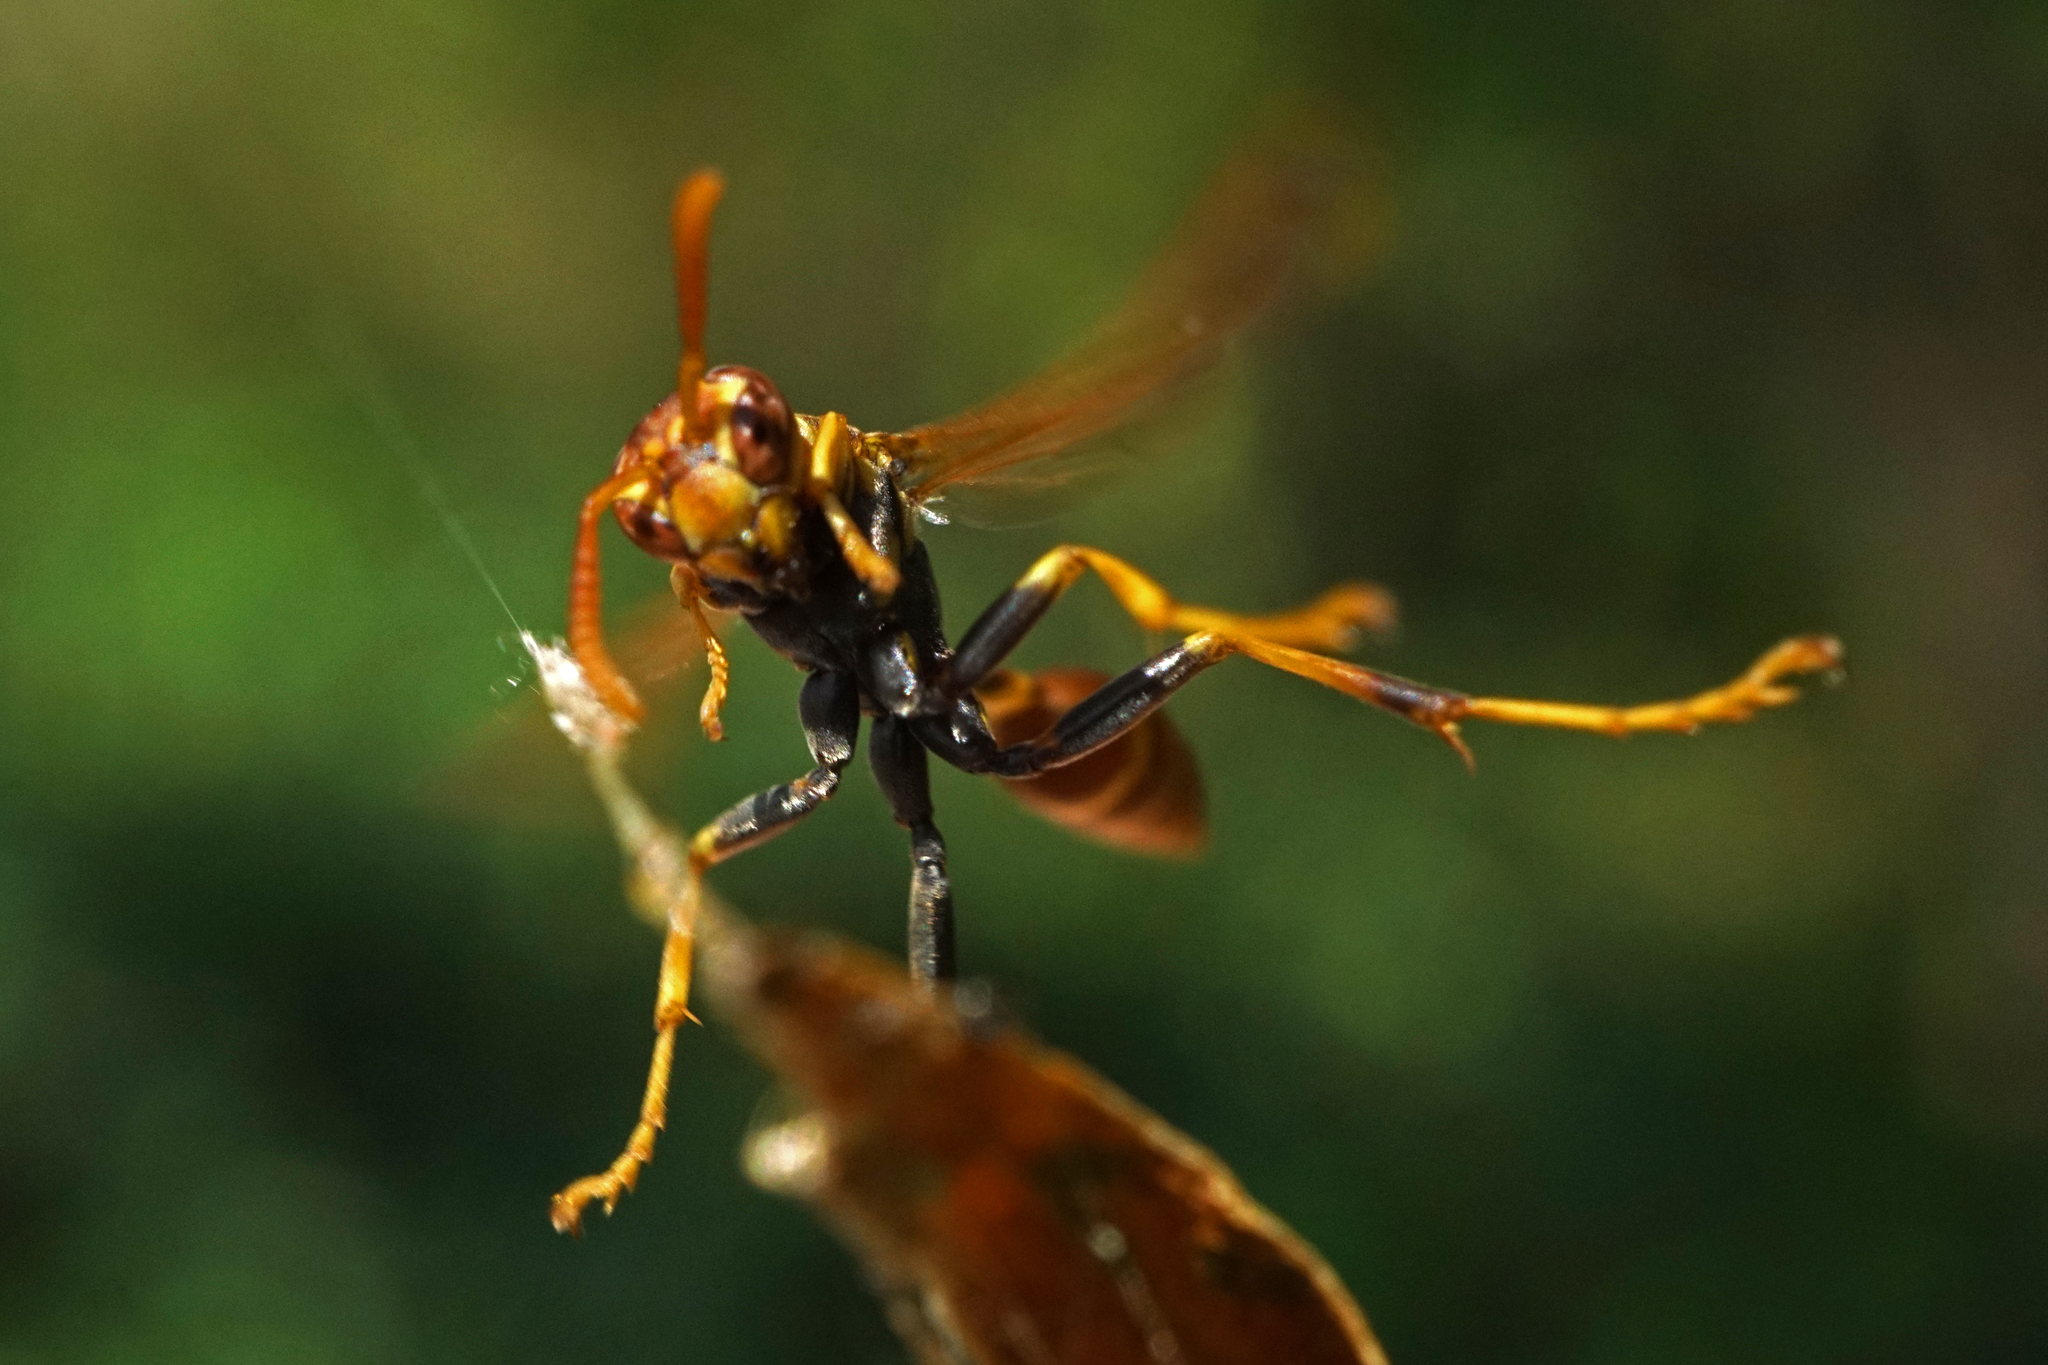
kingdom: Animalia
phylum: Arthropoda
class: Insecta
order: Hymenoptera
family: Vespidae
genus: Mischocyttarus
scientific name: Mischocyttarus mexicanus
